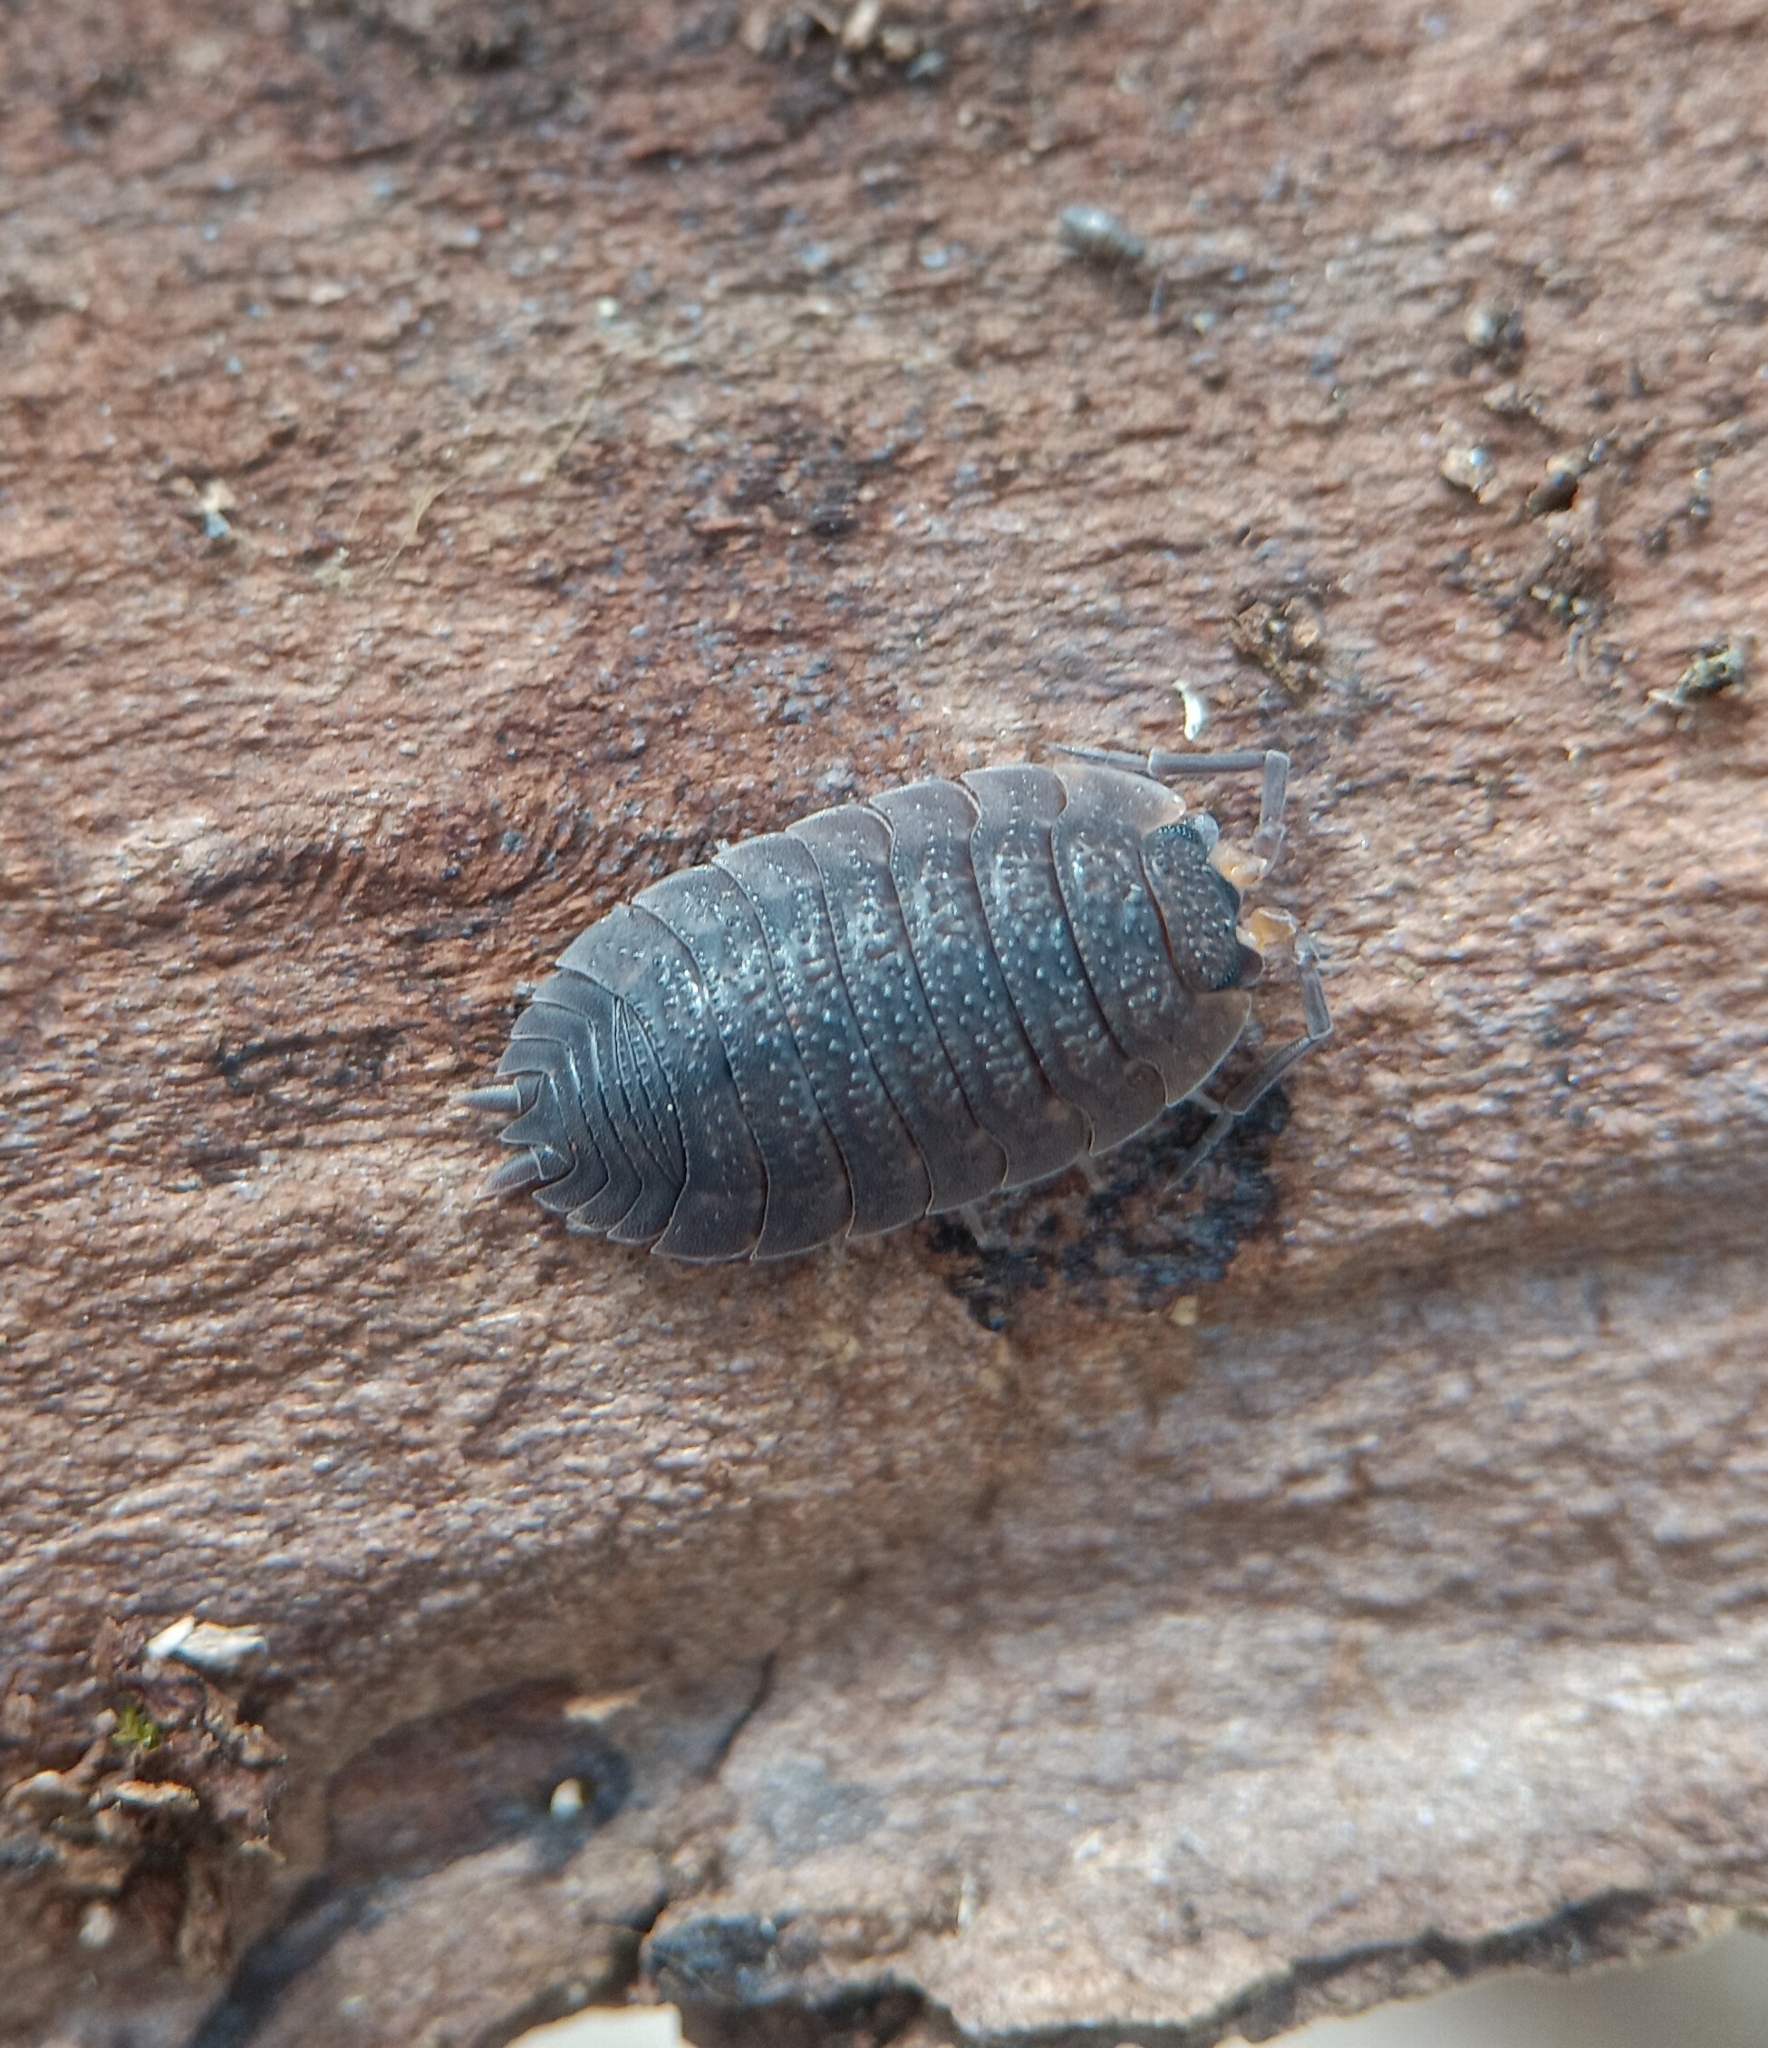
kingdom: Animalia
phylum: Arthropoda
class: Malacostraca
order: Isopoda
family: Porcellionidae
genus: Porcellio
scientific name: Porcellio scaber
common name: Common rough woodlouse
